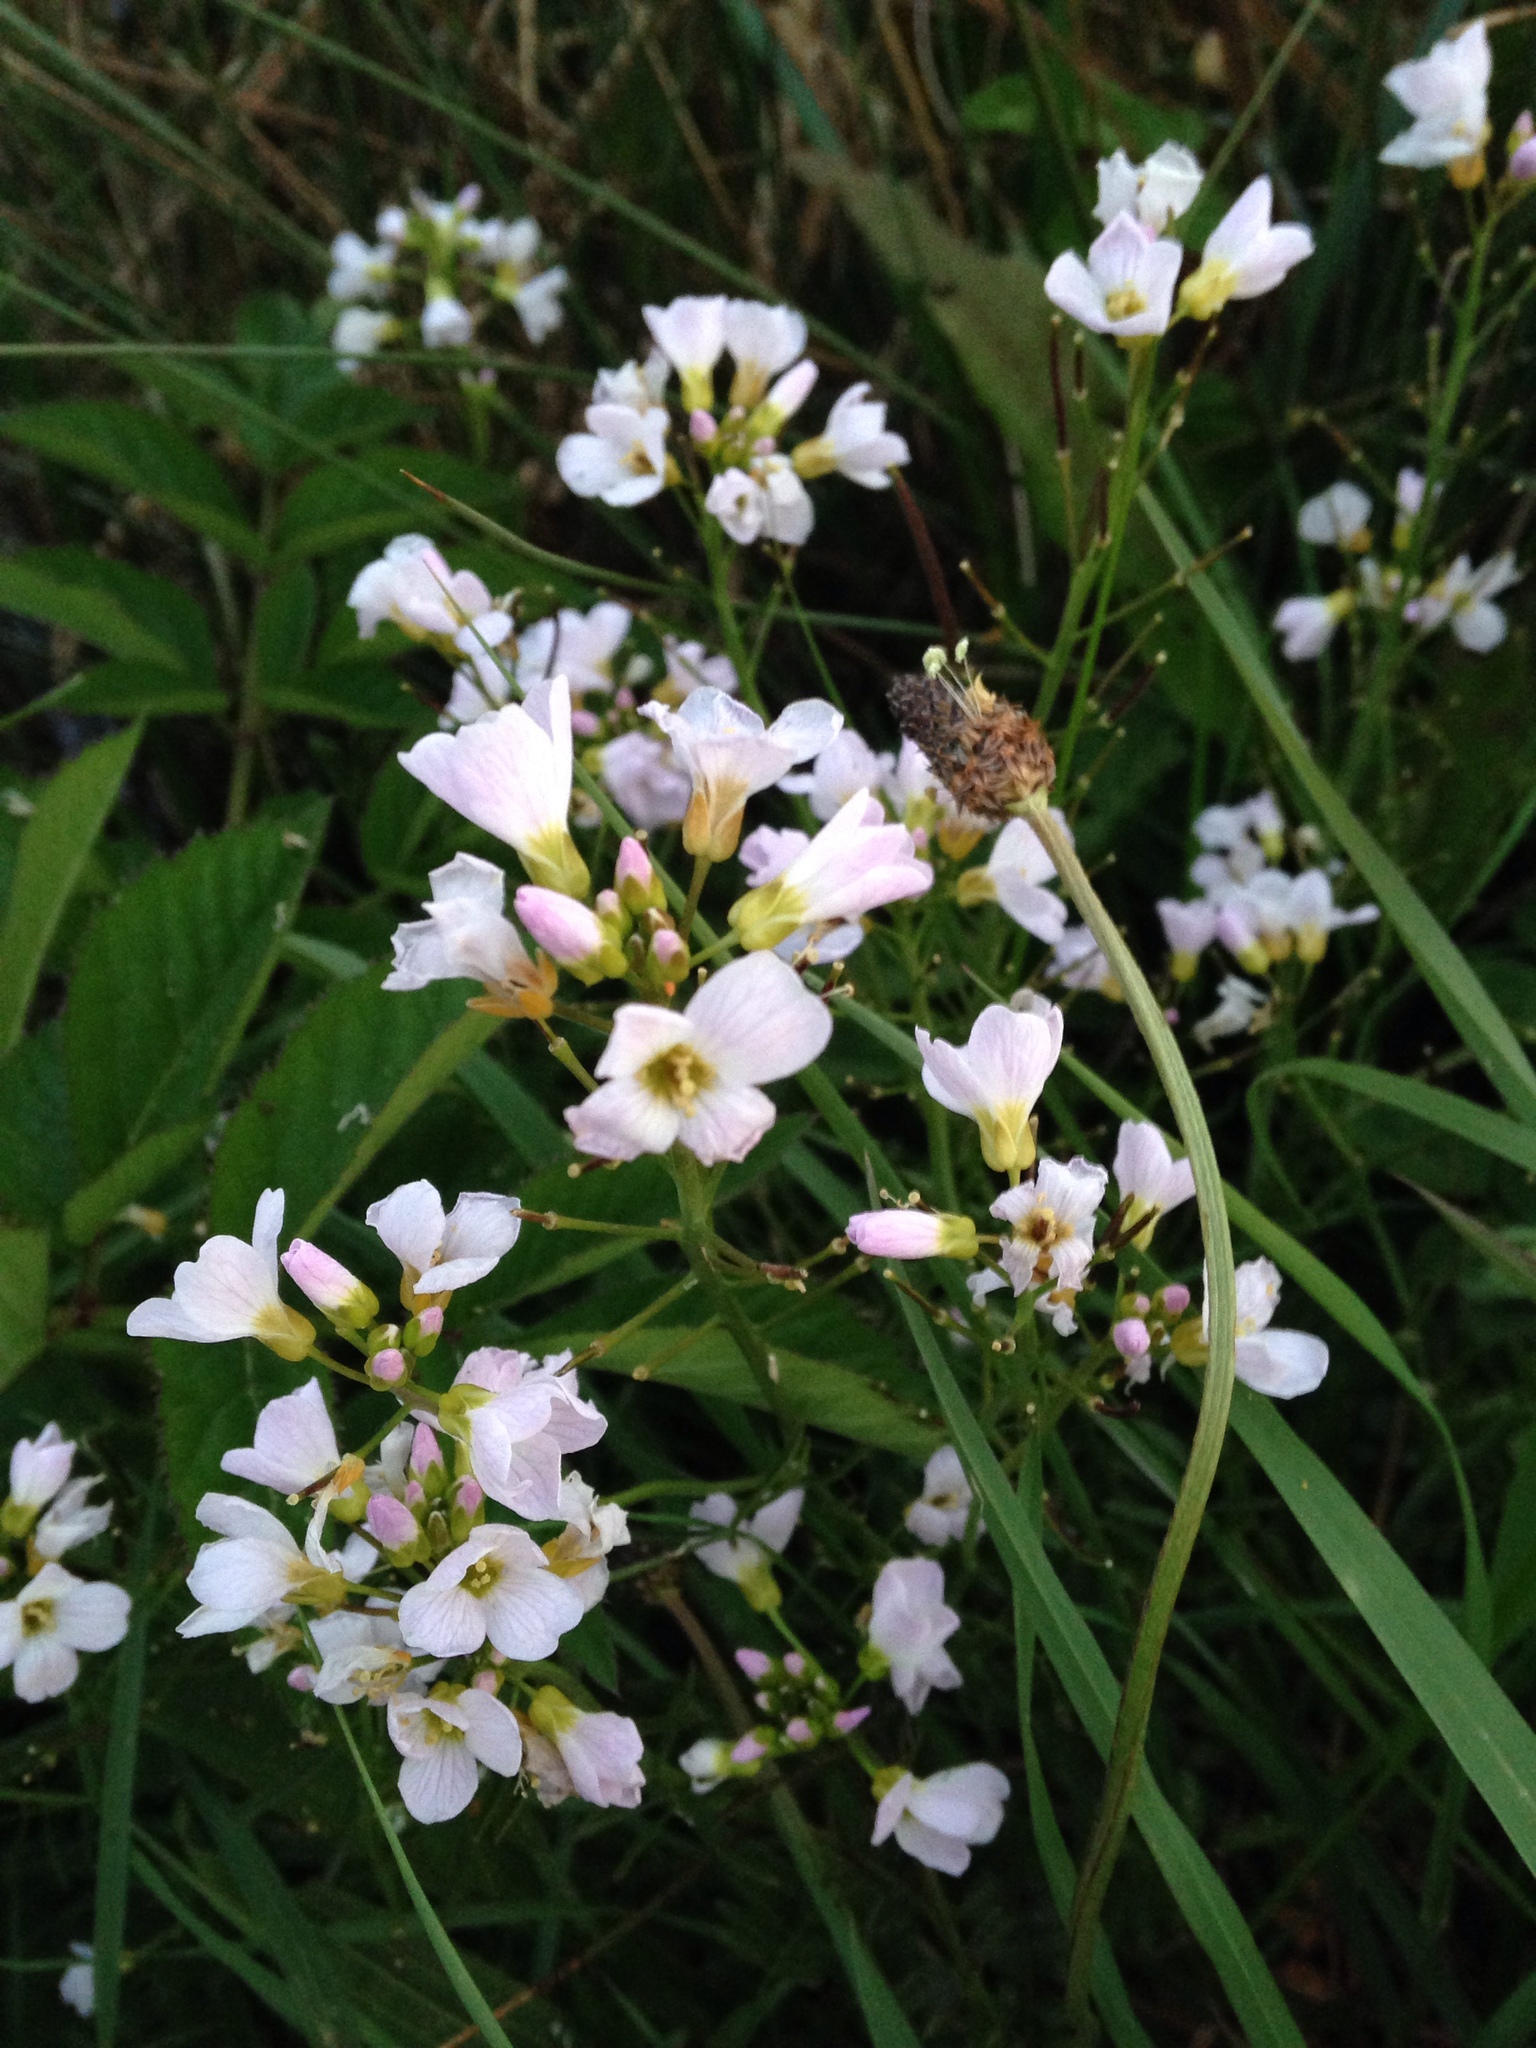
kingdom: Plantae
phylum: Tracheophyta
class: Magnoliopsida
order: Brassicales
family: Brassicaceae
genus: Cardamine
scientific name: Cardamine pratensis
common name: Cuckoo flower
